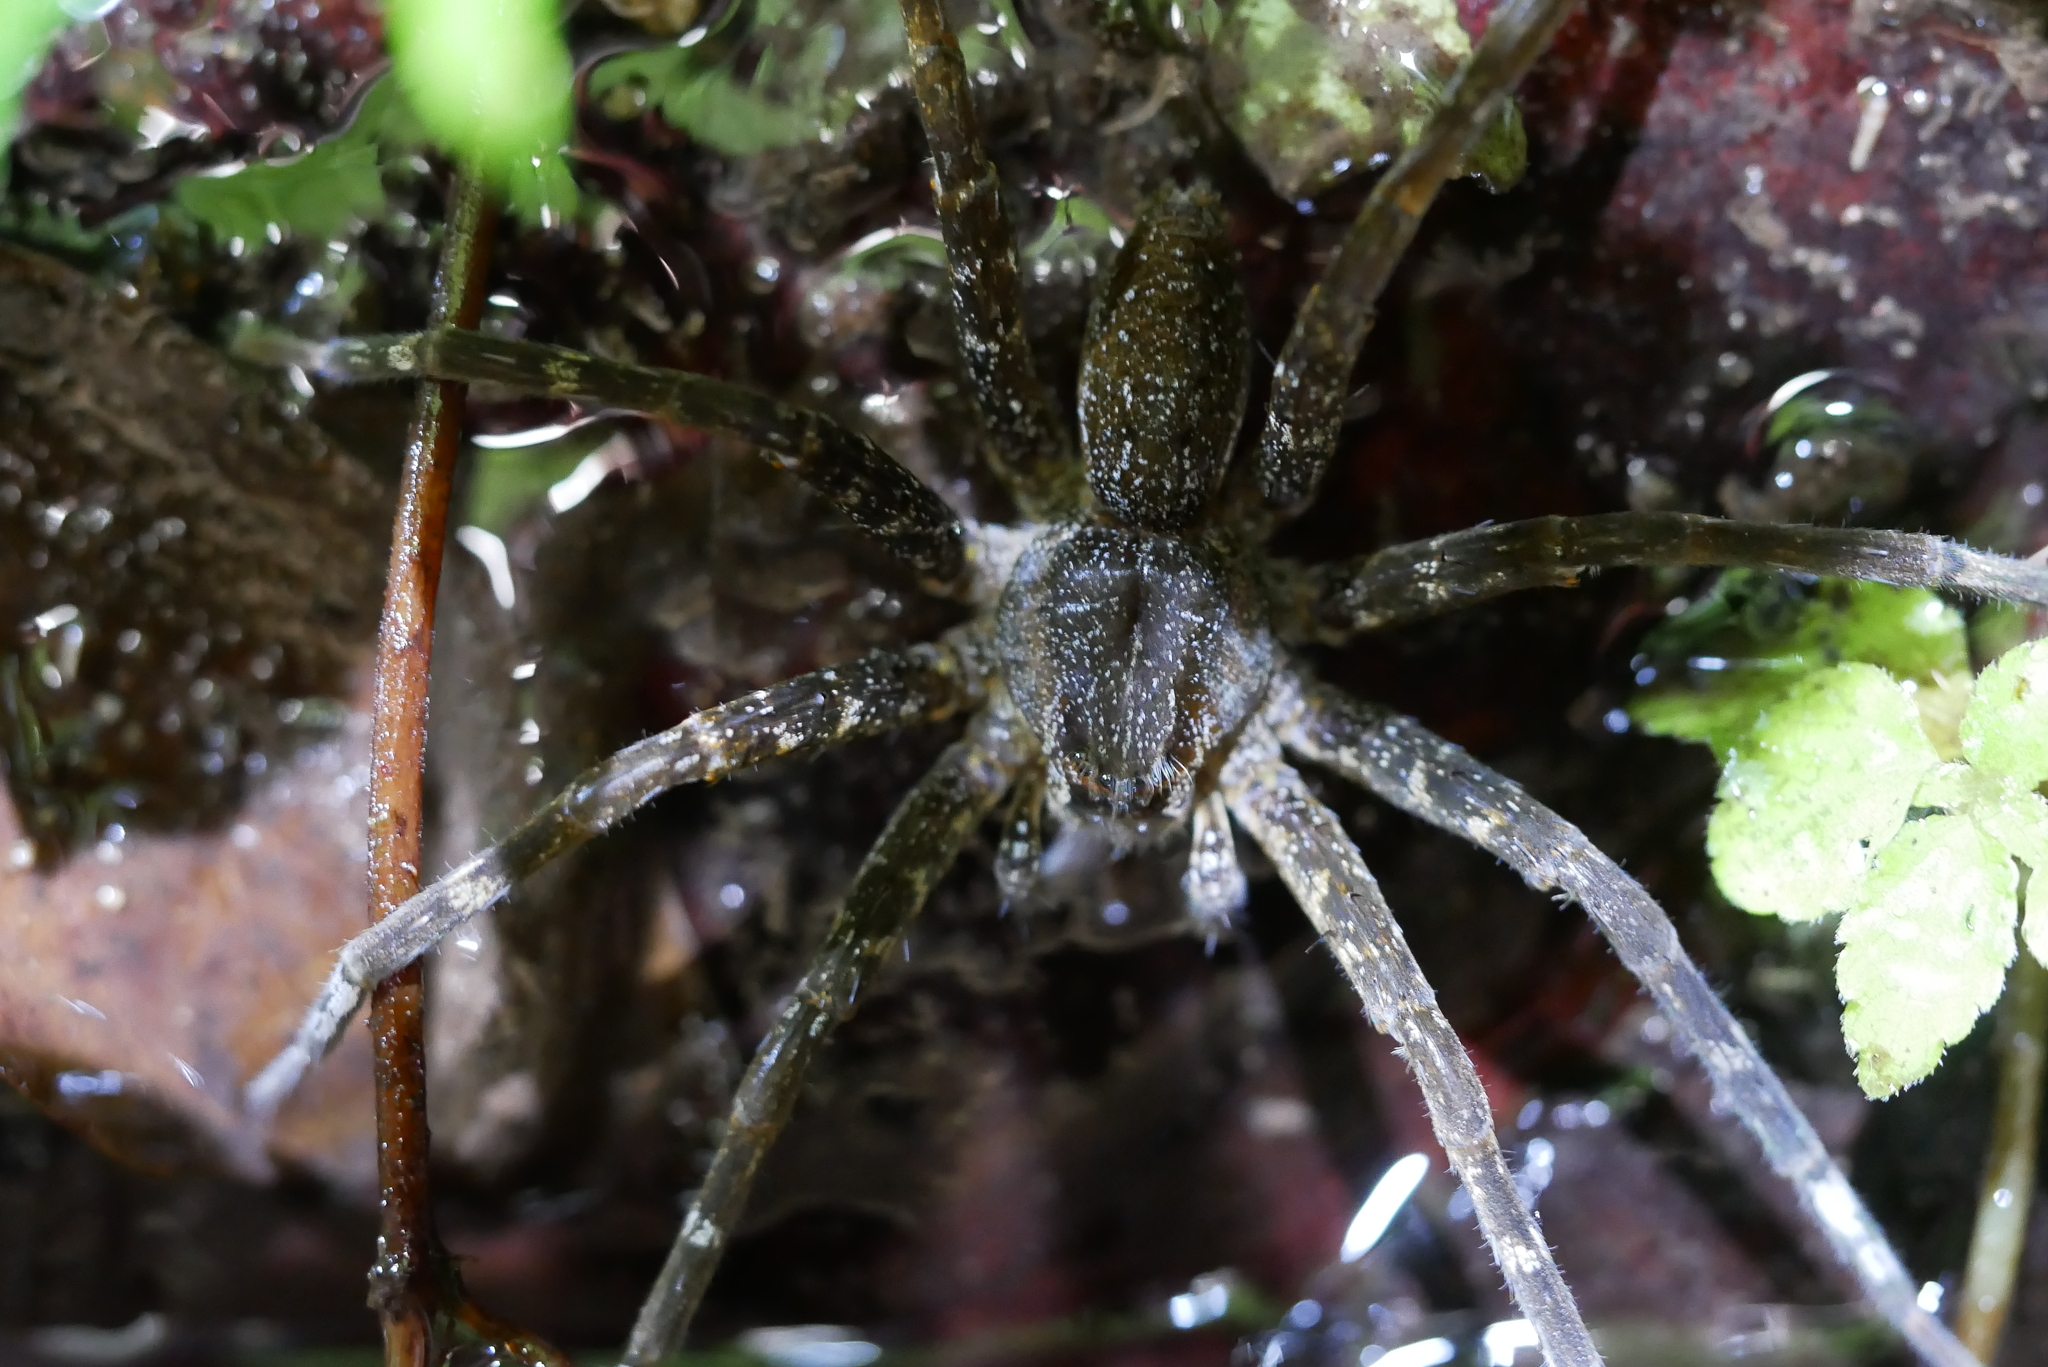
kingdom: Animalia
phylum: Arthropoda
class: Arachnida
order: Araneae
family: Pisauridae
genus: Dolomedes
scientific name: Dolomedes raptor
